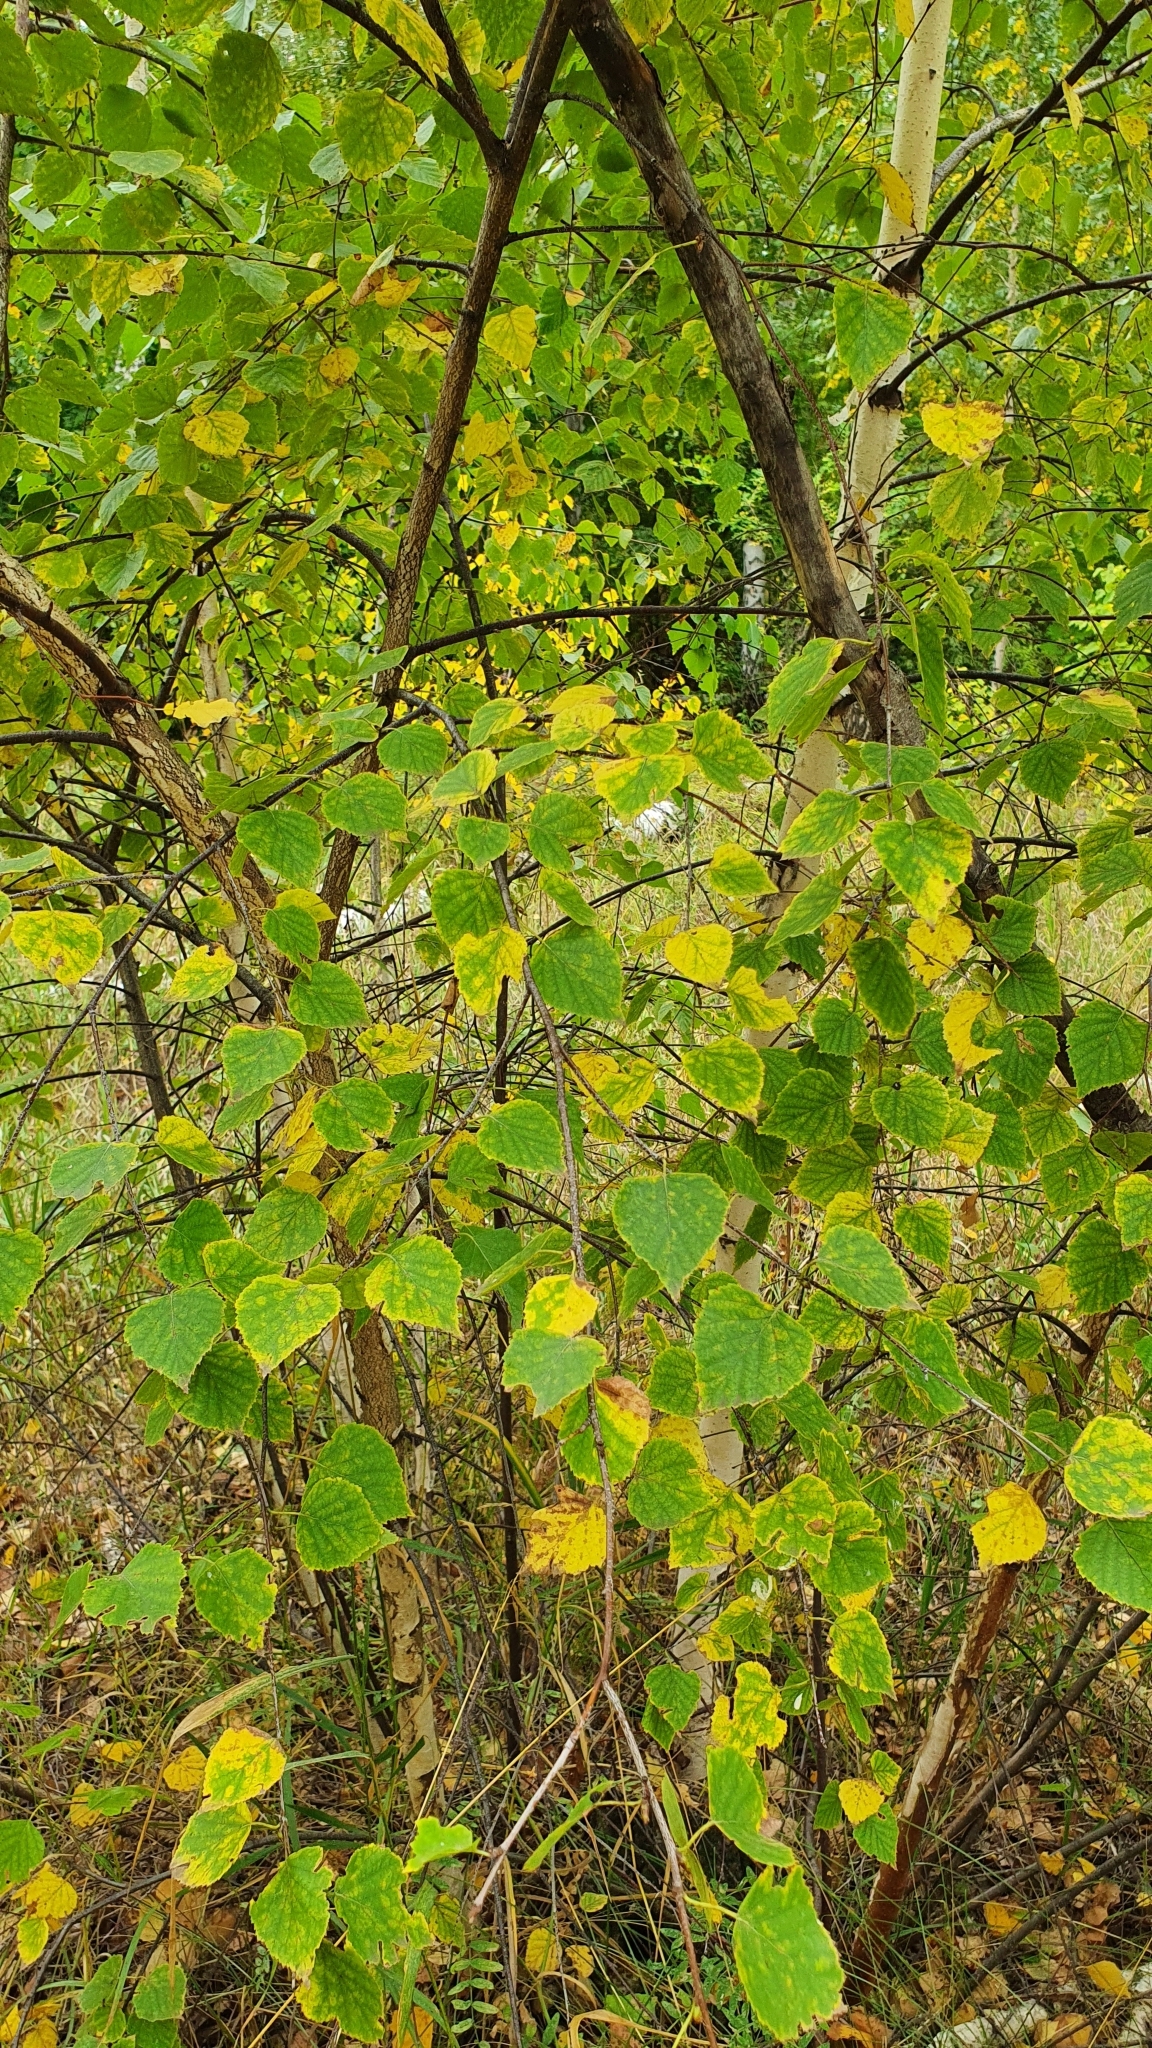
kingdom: Plantae
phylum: Tracheophyta
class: Magnoliopsida
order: Fagales
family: Betulaceae
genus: Betula
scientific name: Betula pendula
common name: Silver birch
